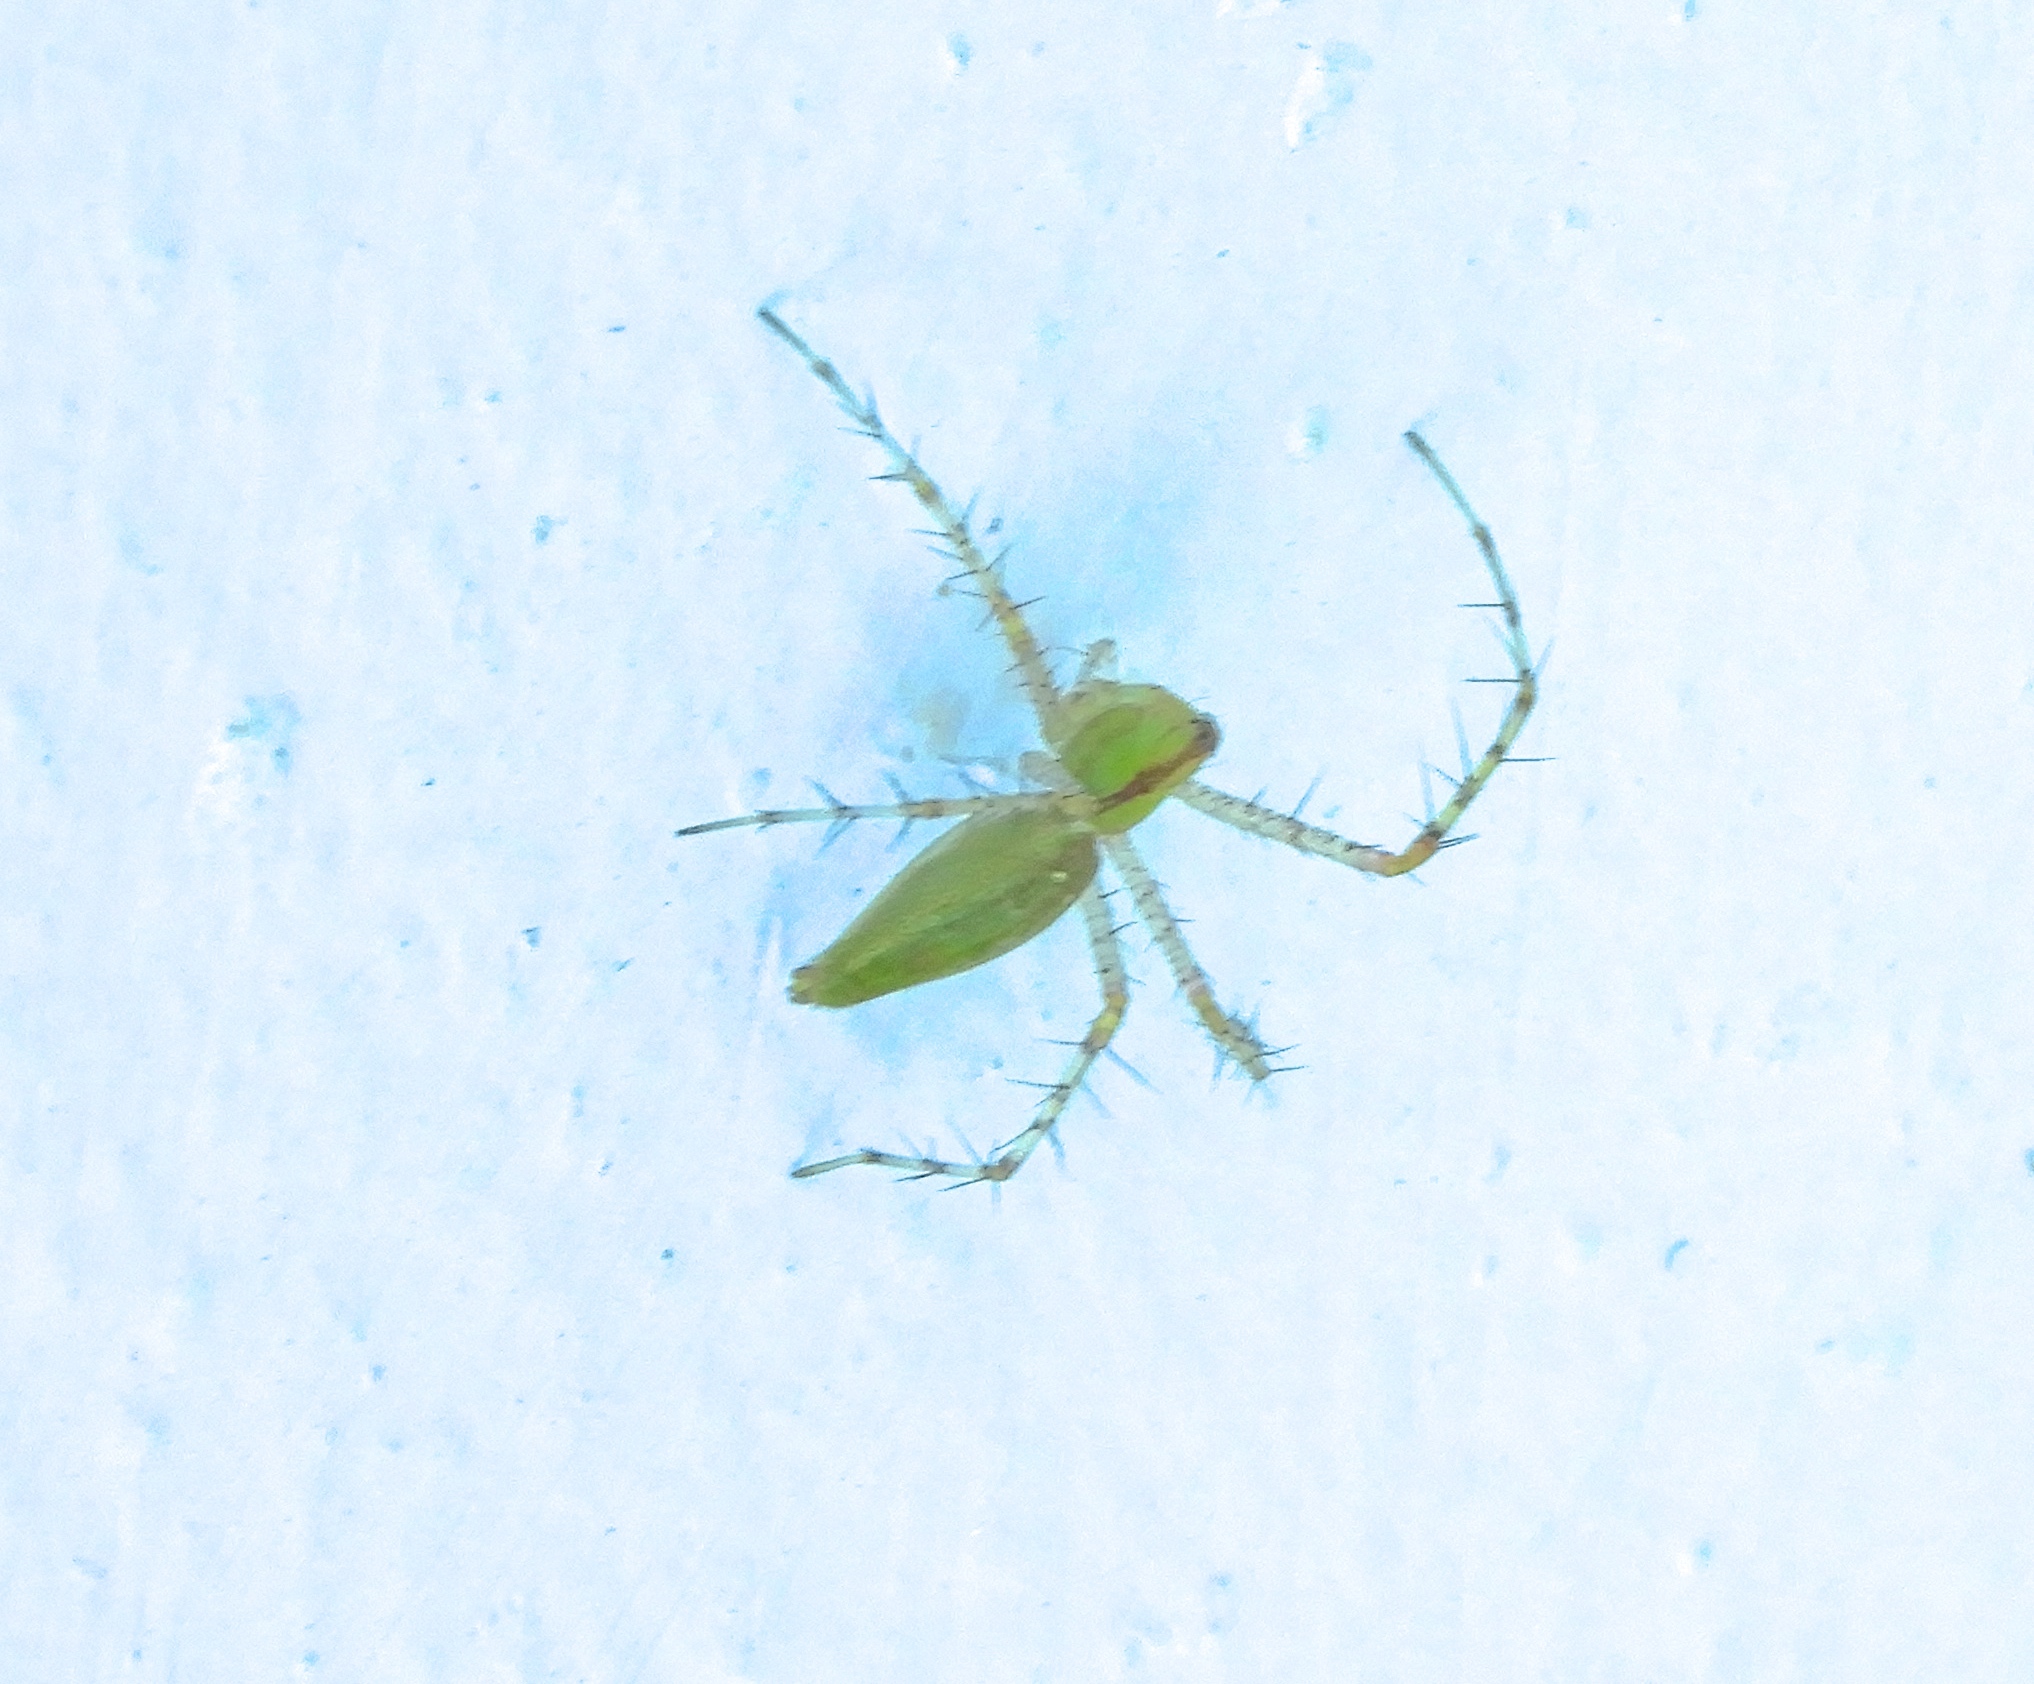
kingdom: Animalia
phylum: Arthropoda
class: Arachnida
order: Araneae
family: Oxyopidae
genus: Peucetia
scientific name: Peucetia
